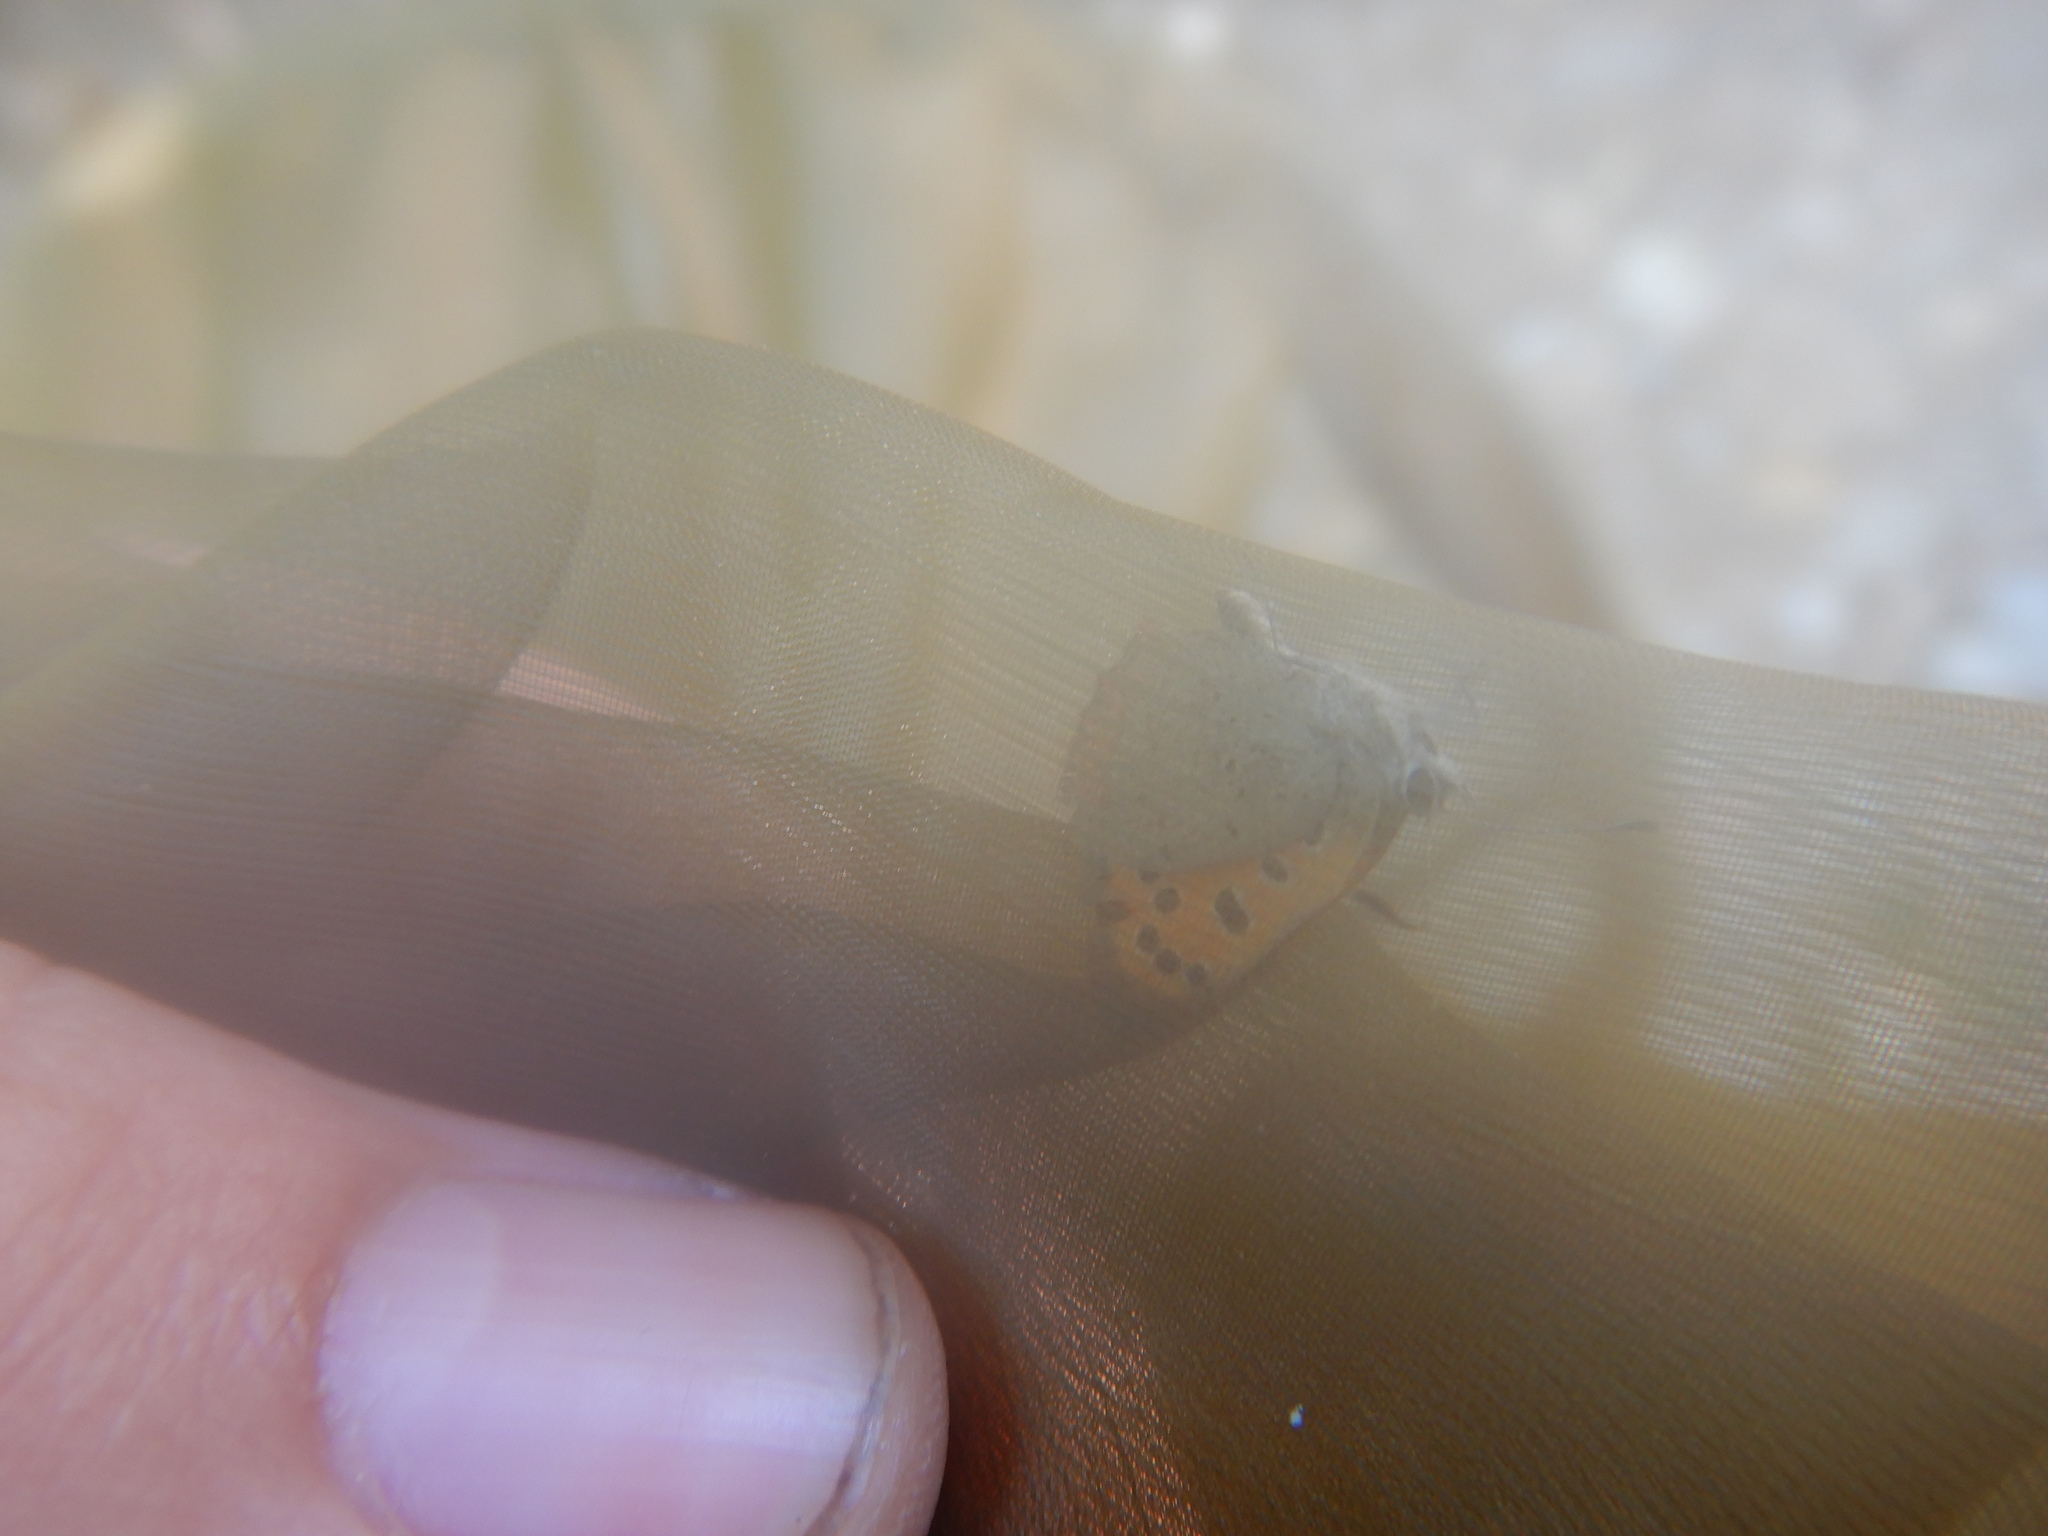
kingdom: Animalia
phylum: Arthropoda
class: Insecta
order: Lepidoptera
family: Lycaenidae
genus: Lycaena
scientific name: Lycaena phlaeas
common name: Small copper
